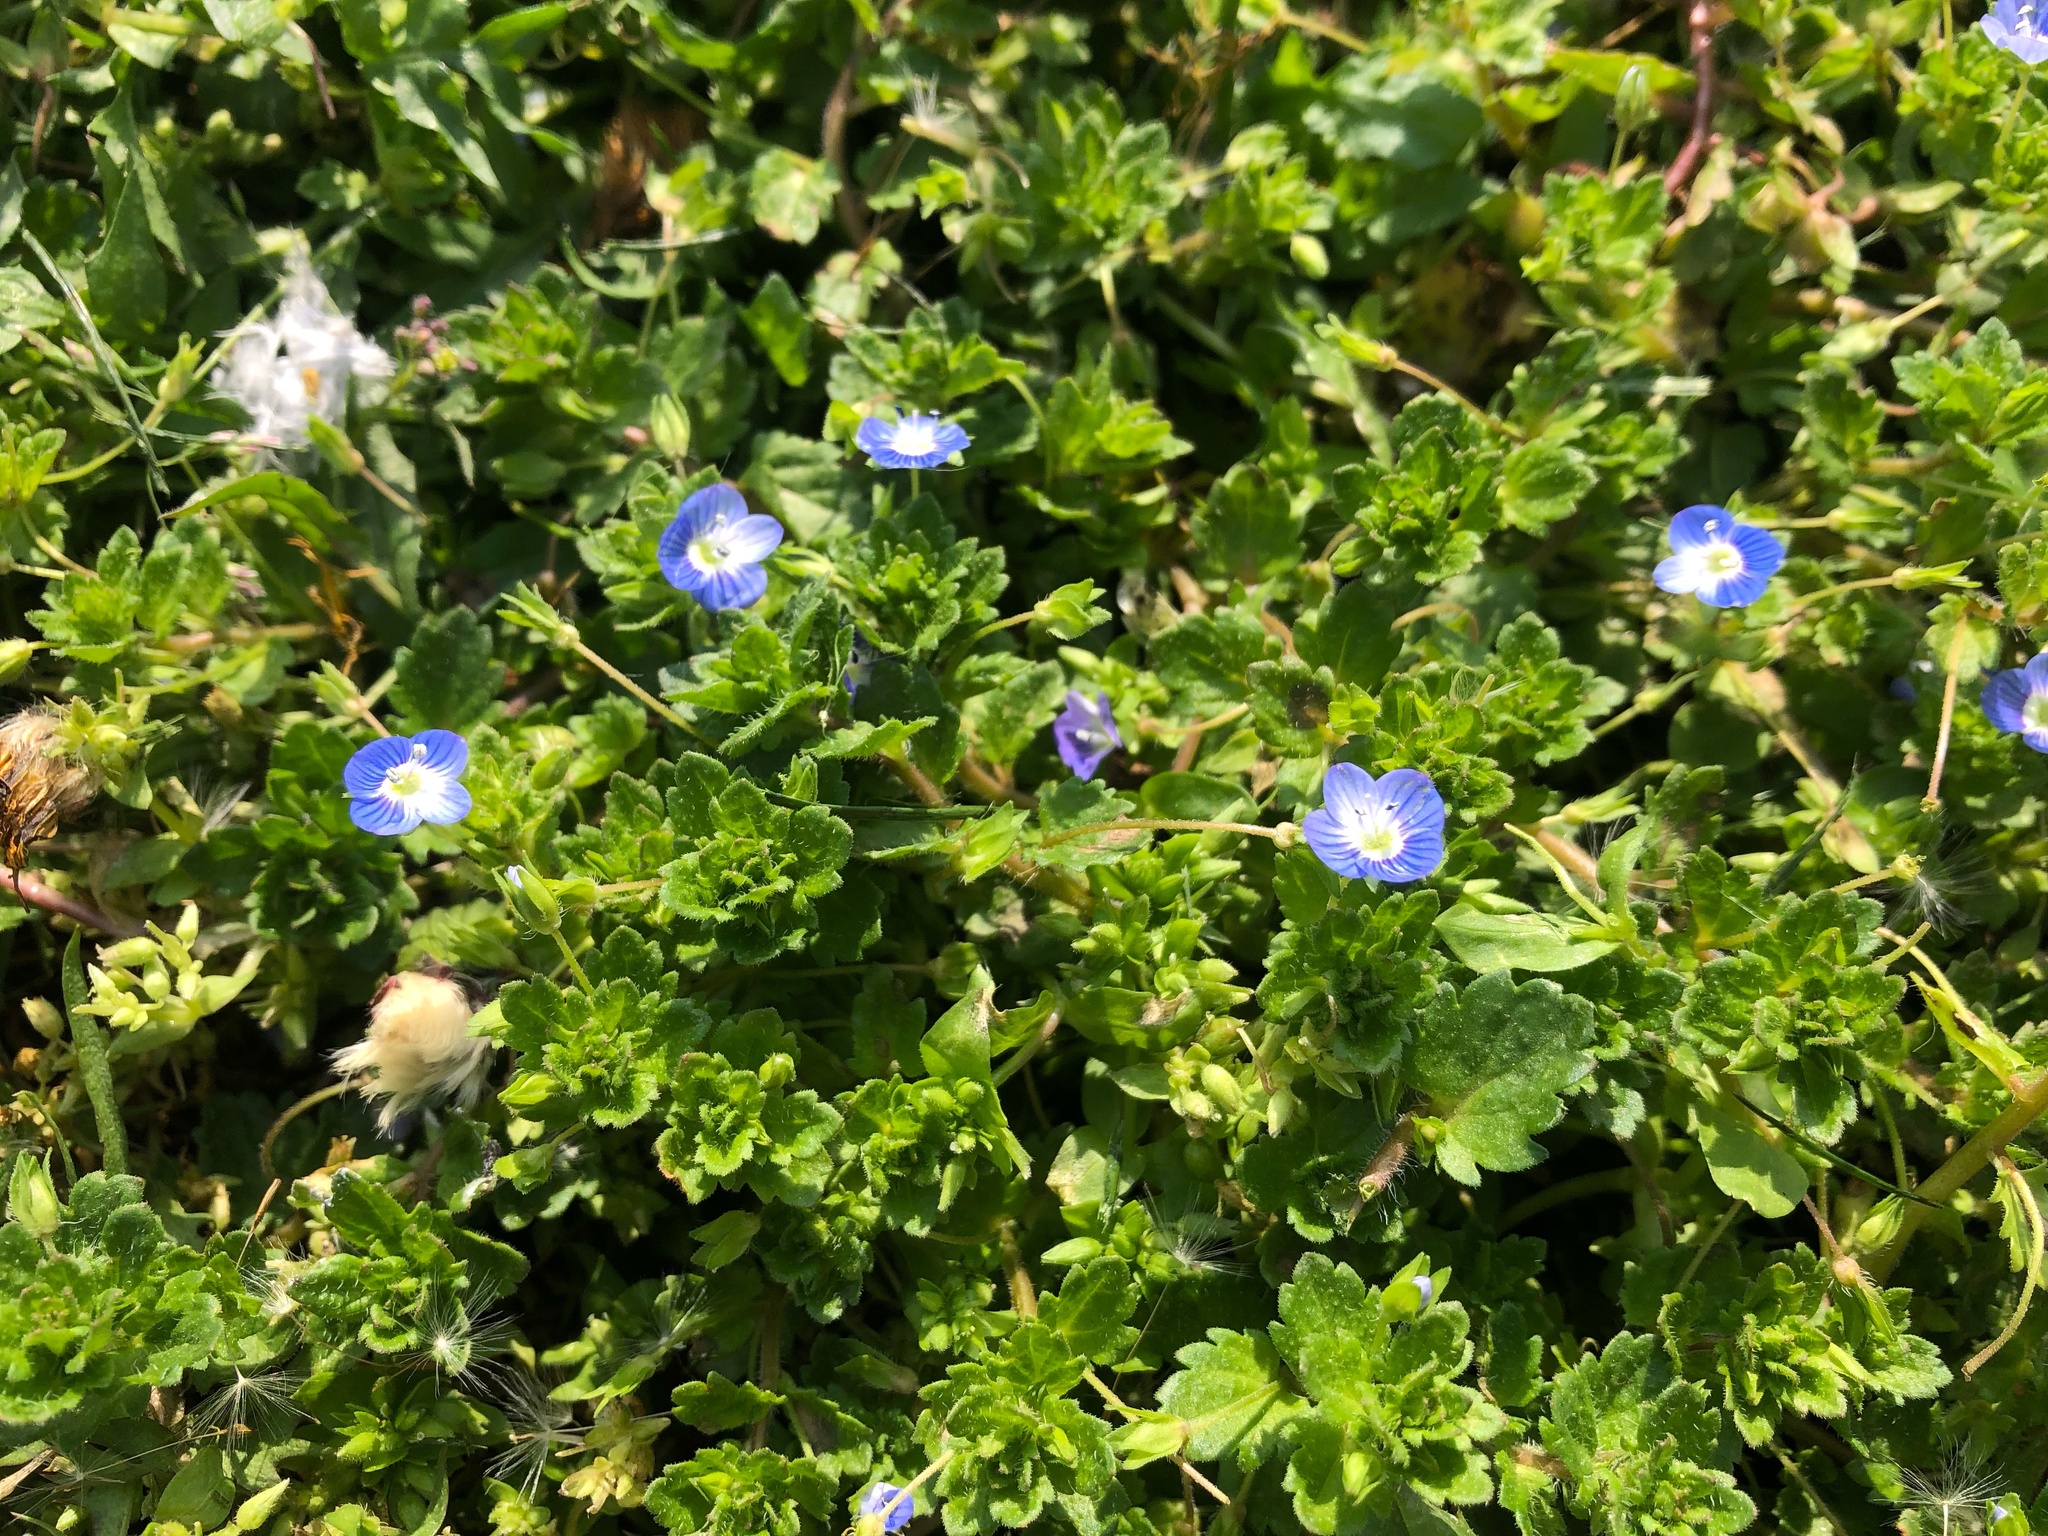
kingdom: Plantae
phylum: Tracheophyta
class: Magnoliopsida
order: Lamiales
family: Plantaginaceae
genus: Veronica
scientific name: Veronica persica
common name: Common field-speedwell
